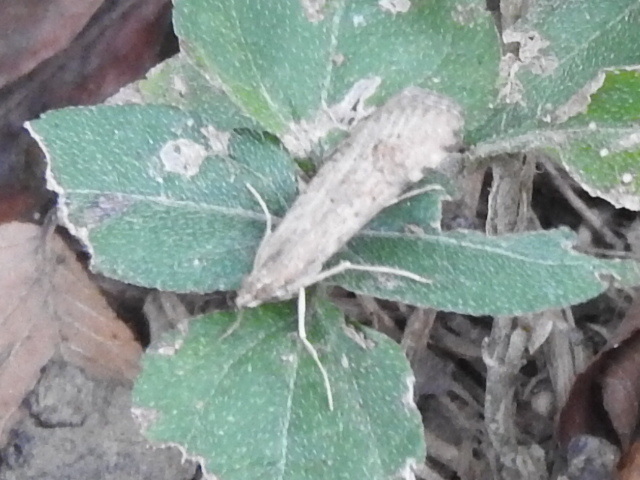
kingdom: Animalia
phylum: Arthropoda
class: Insecta
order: Lepidoptera
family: Crambidae
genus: Nomophila
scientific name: Nomophila nearctica
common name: American rush veneer
